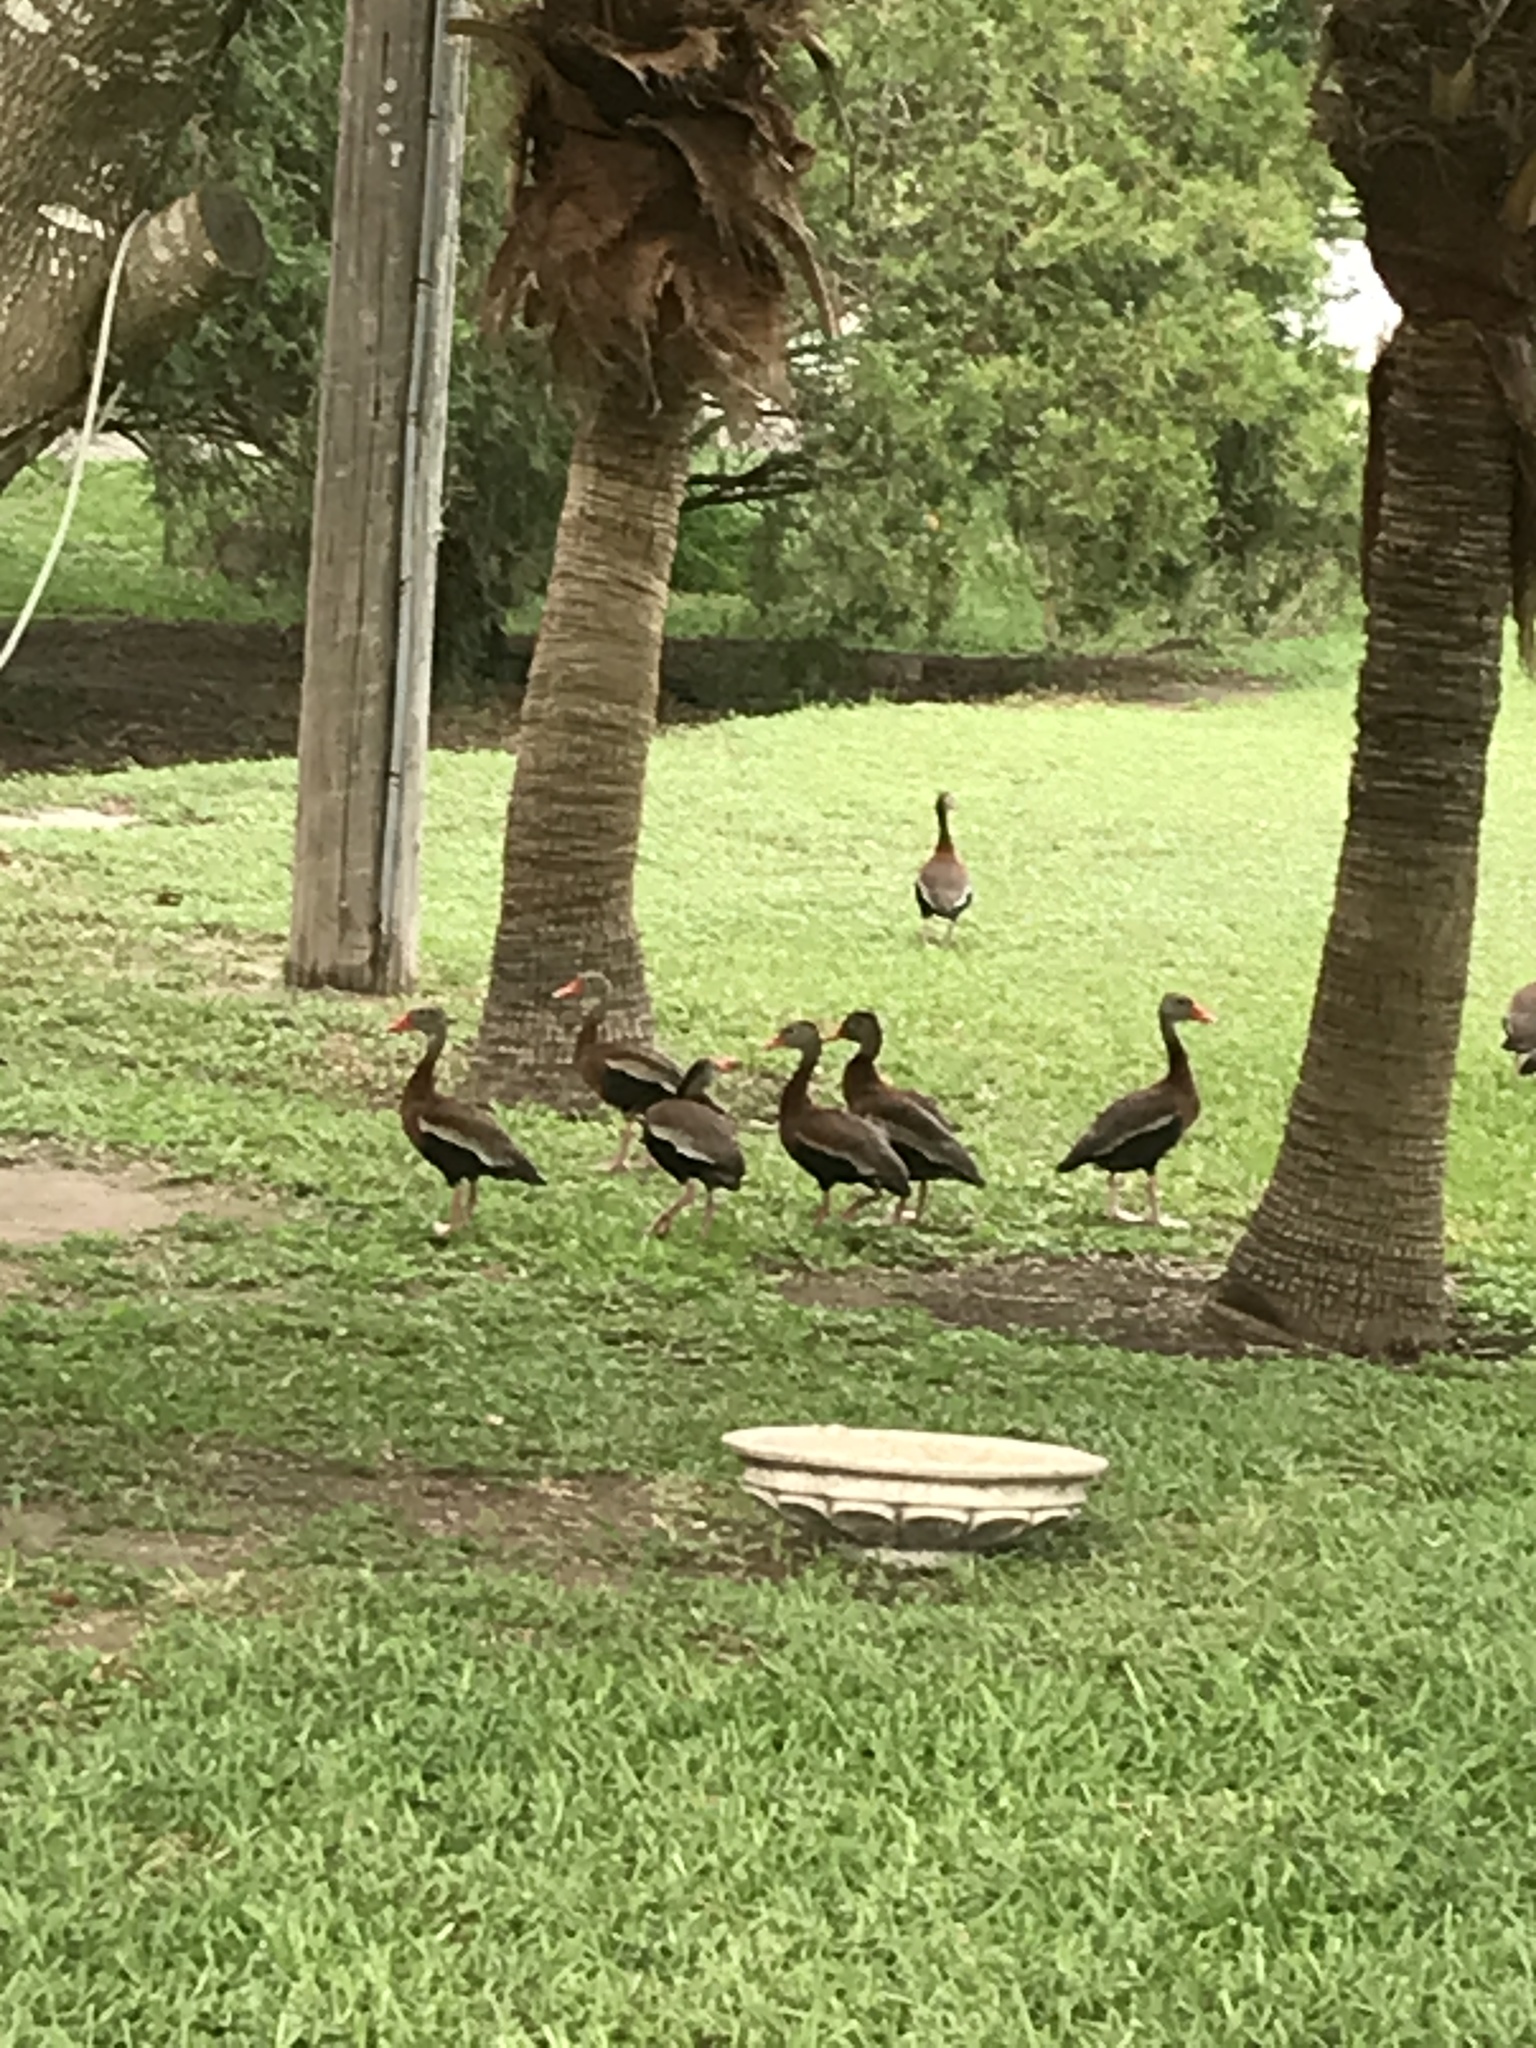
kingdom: Animalia
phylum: Chordata
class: Aves
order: Anseriformes
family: Anatidae
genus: Dendrocygna
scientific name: Dendrocygna autumnalis
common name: Black-bellied whistling duck
